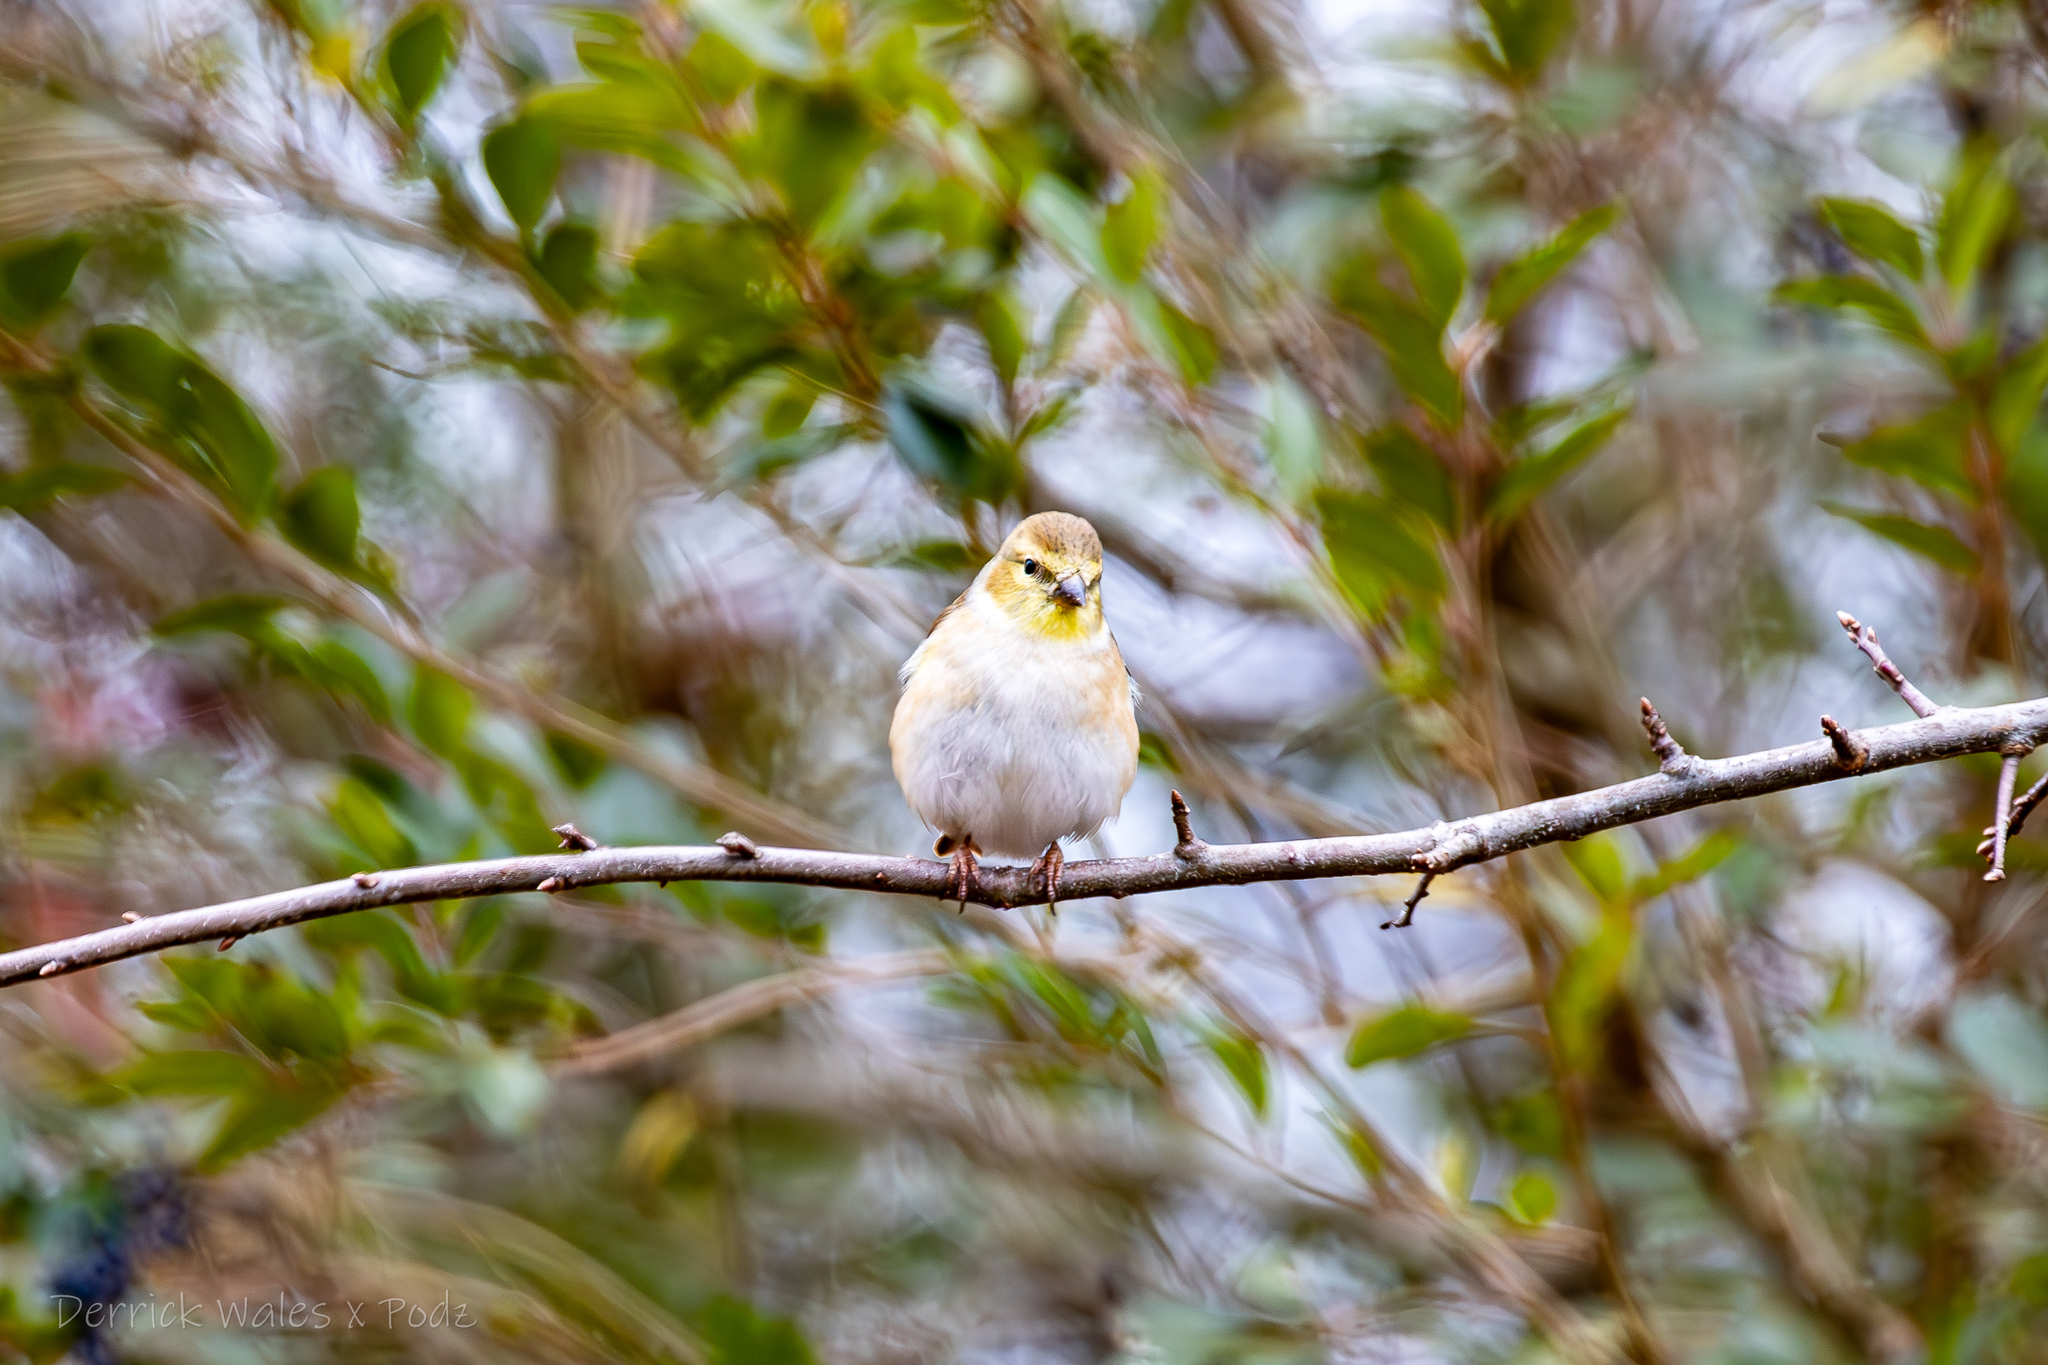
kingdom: Animalia
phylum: Chordata
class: Aves
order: Passeriformes
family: Fringillidae
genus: Spinus
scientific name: Spinus tristis
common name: American goldfinch
